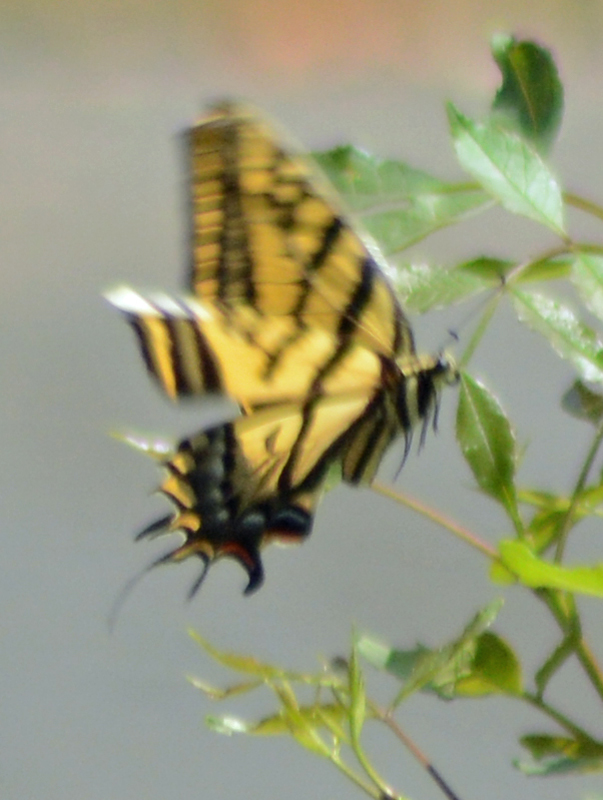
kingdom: Animalia
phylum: Arthropoda
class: Insecta
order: Lepidoptera
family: Papilionidae
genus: Papilio
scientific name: Papilio multicaudata
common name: Two-tailed tiger swallowtail
